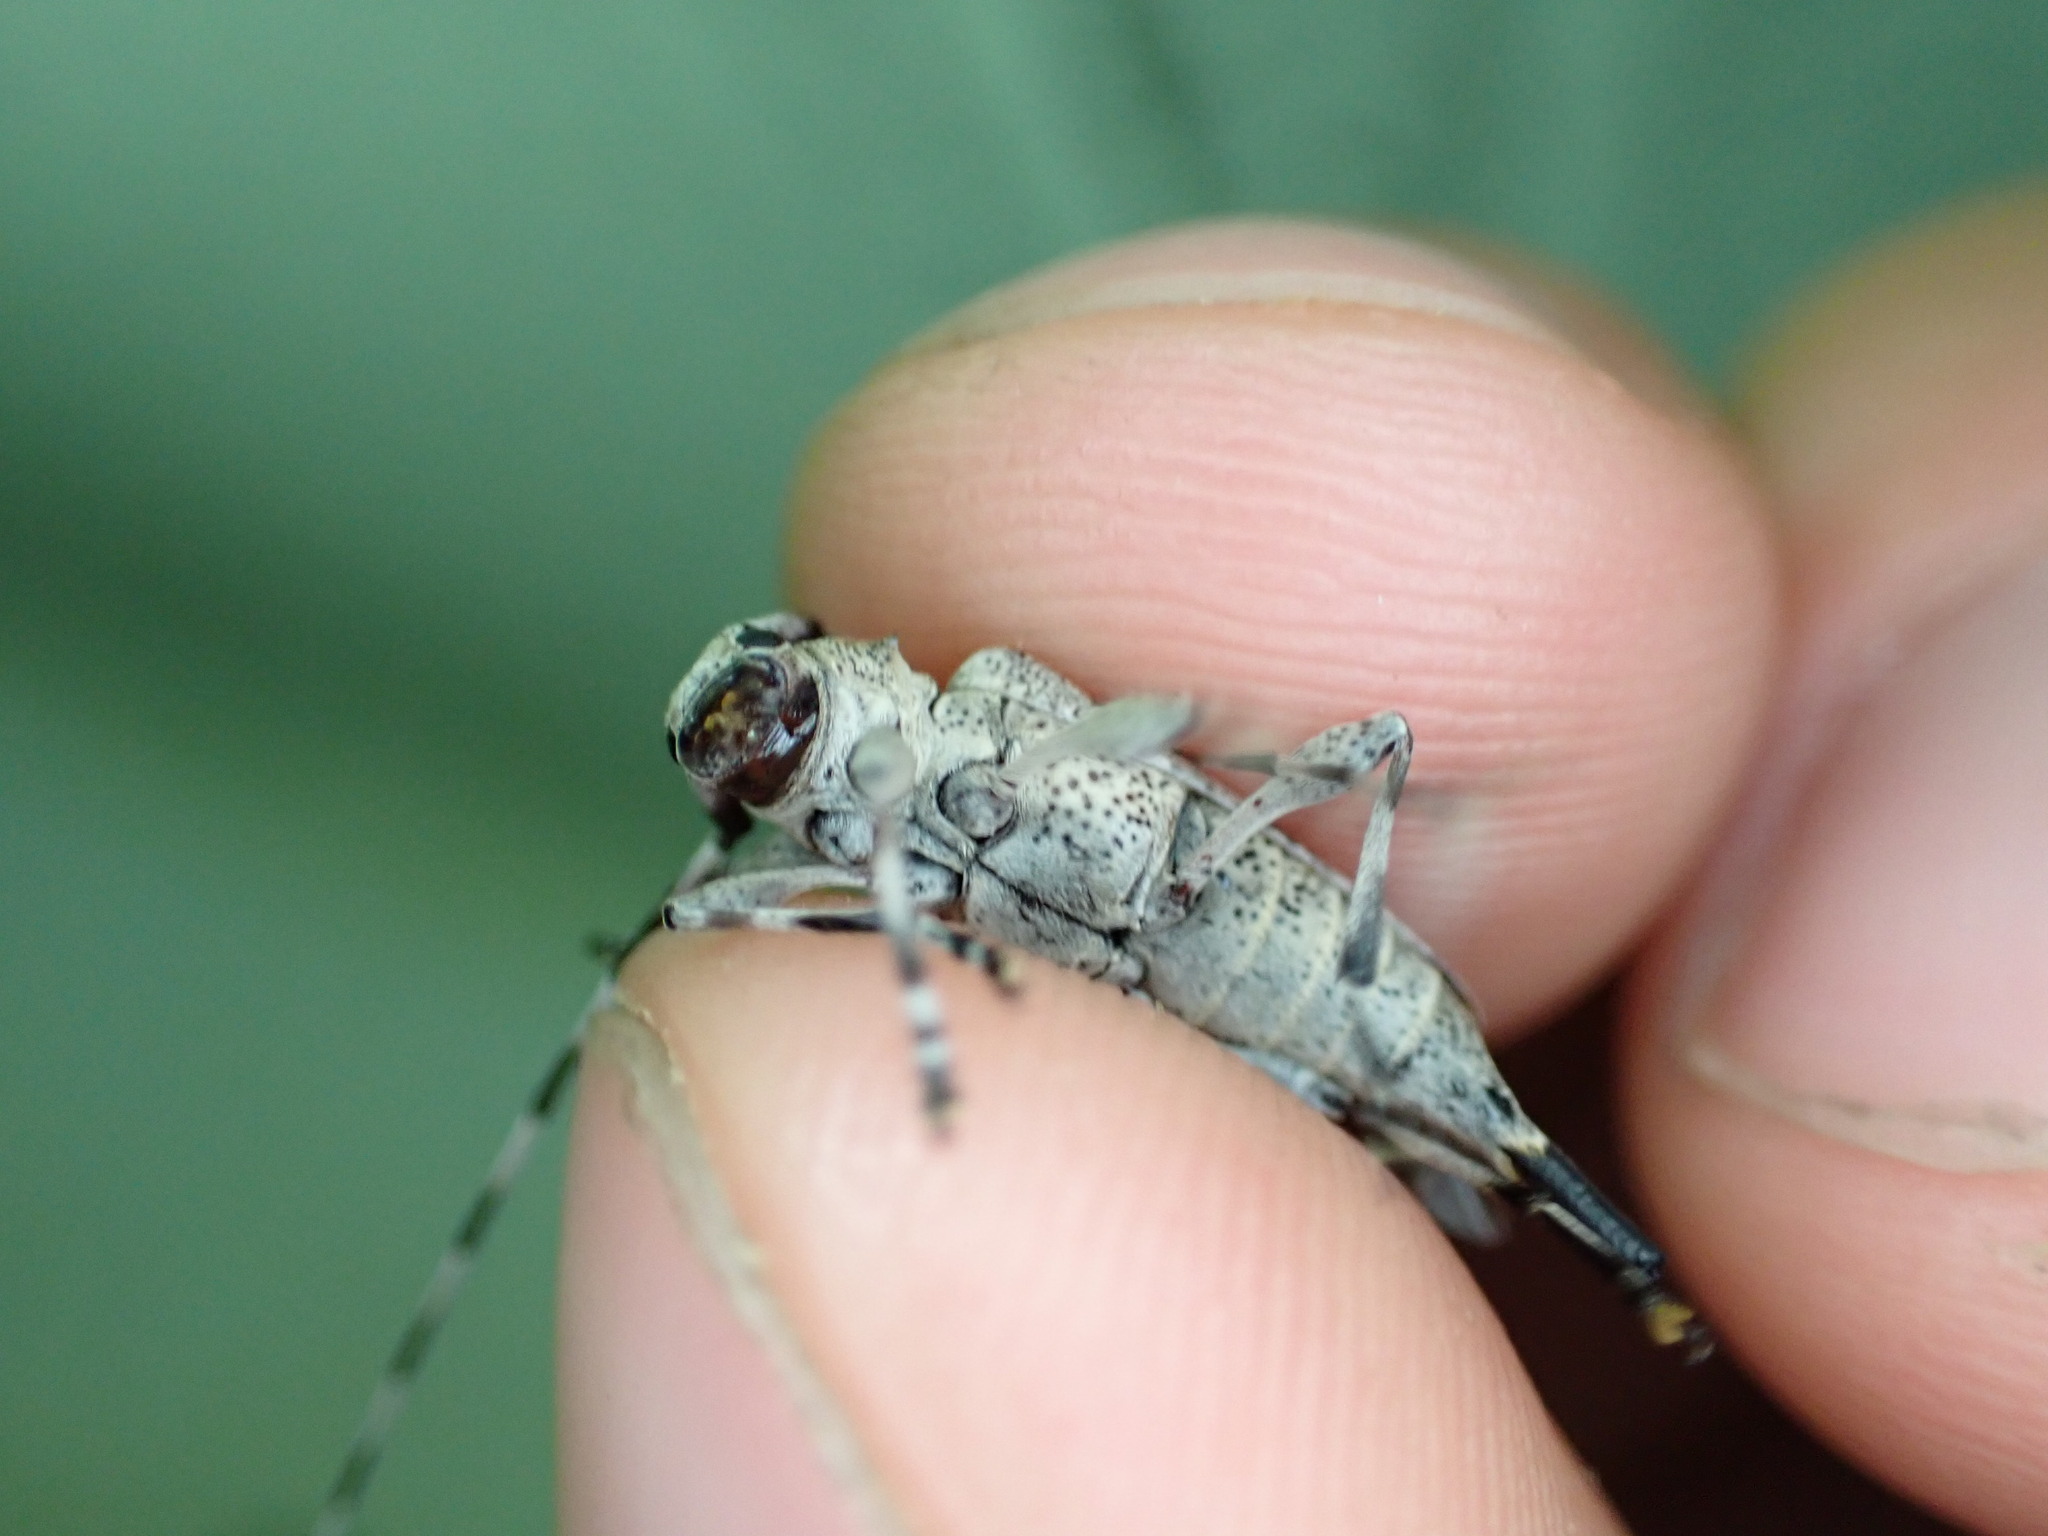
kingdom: Animalia
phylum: Arthropoda
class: Insecta
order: Coleoptera
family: Cerambycidae
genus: Acanthocinus
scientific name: Acanthocinus griseus
